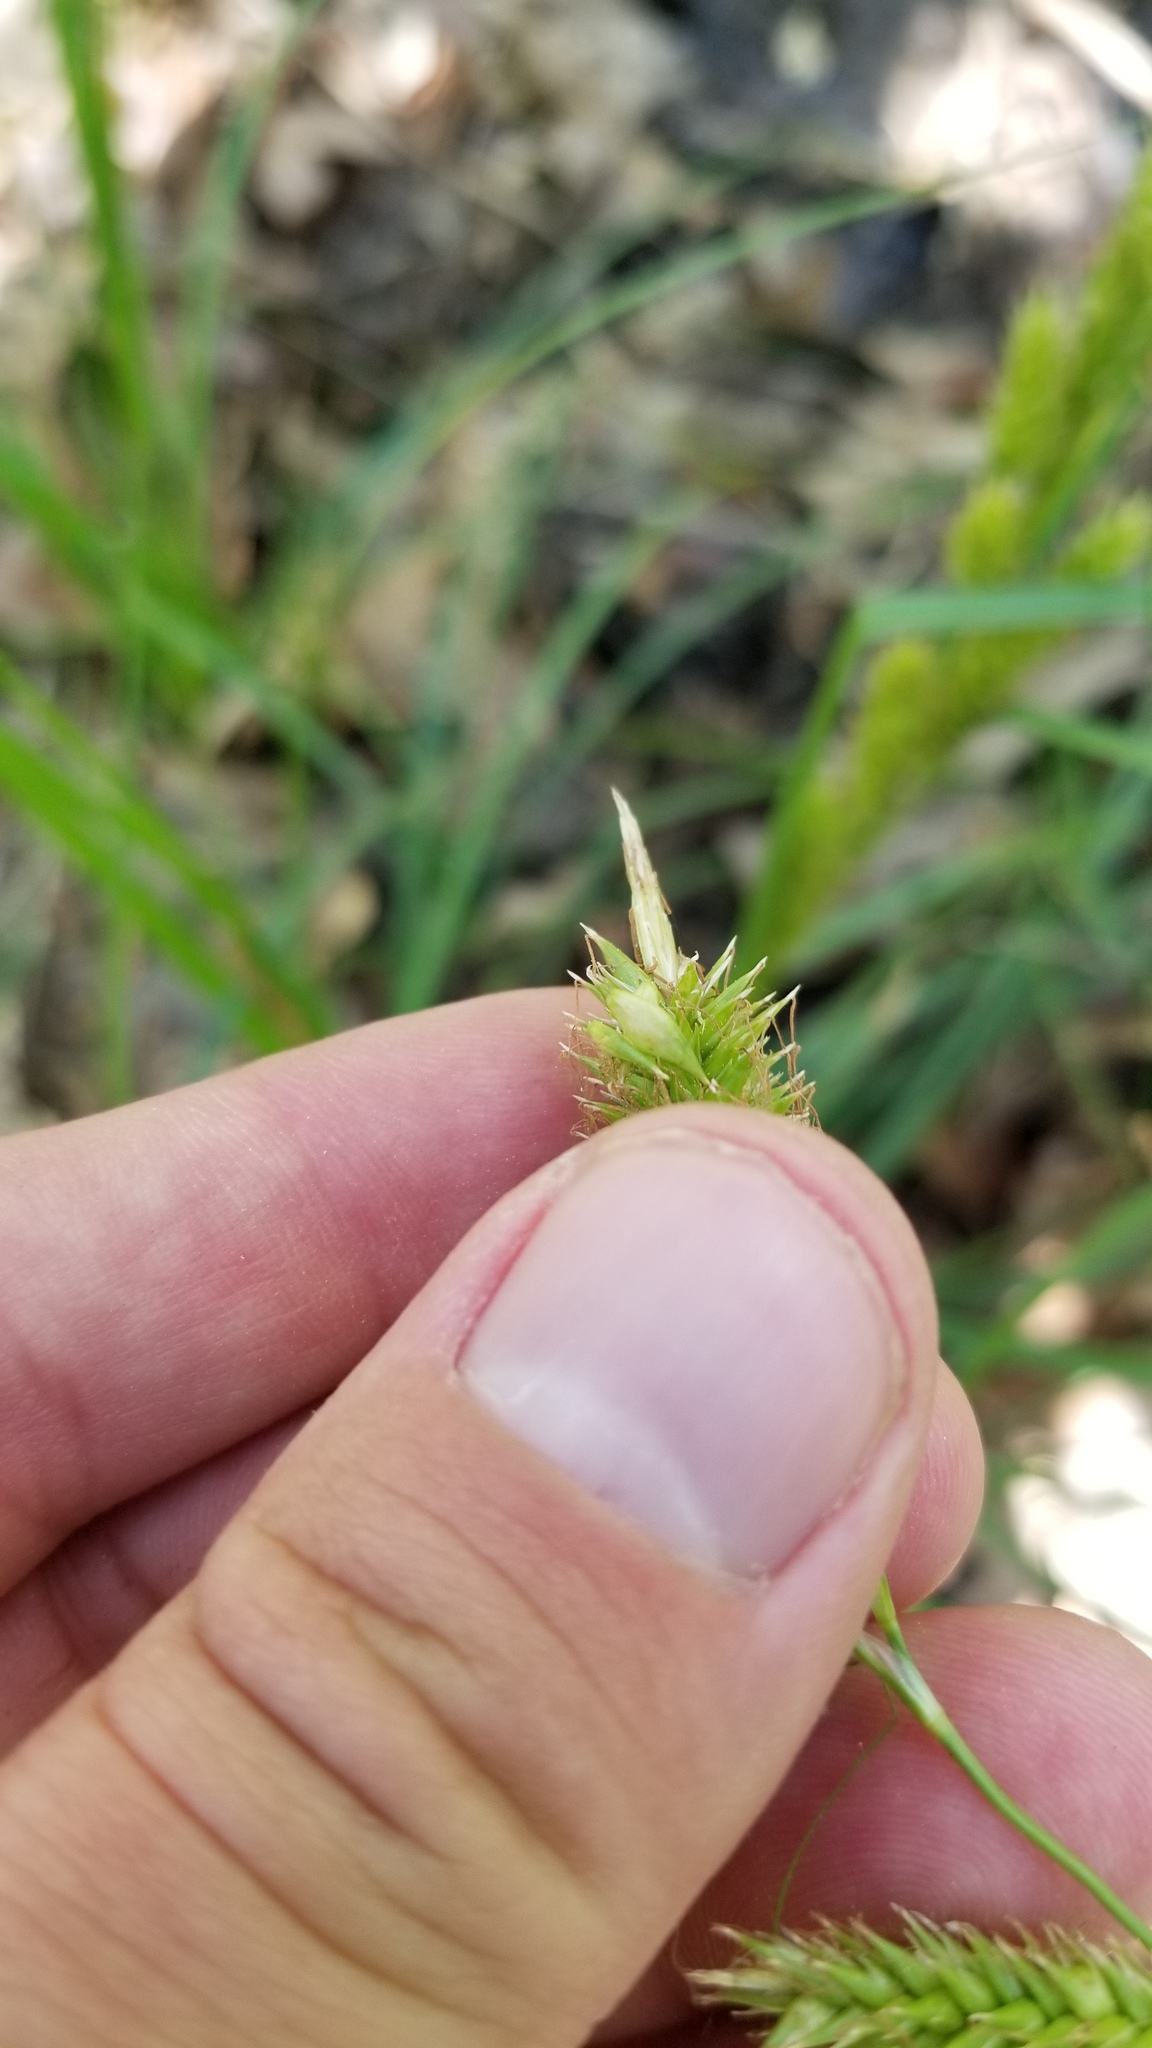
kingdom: Plantae
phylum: Tracheophyta
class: Liliopsida
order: Poales
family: Cyperaceae
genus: Carex
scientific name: Carex cherokeensis
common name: Cherokee sedge
